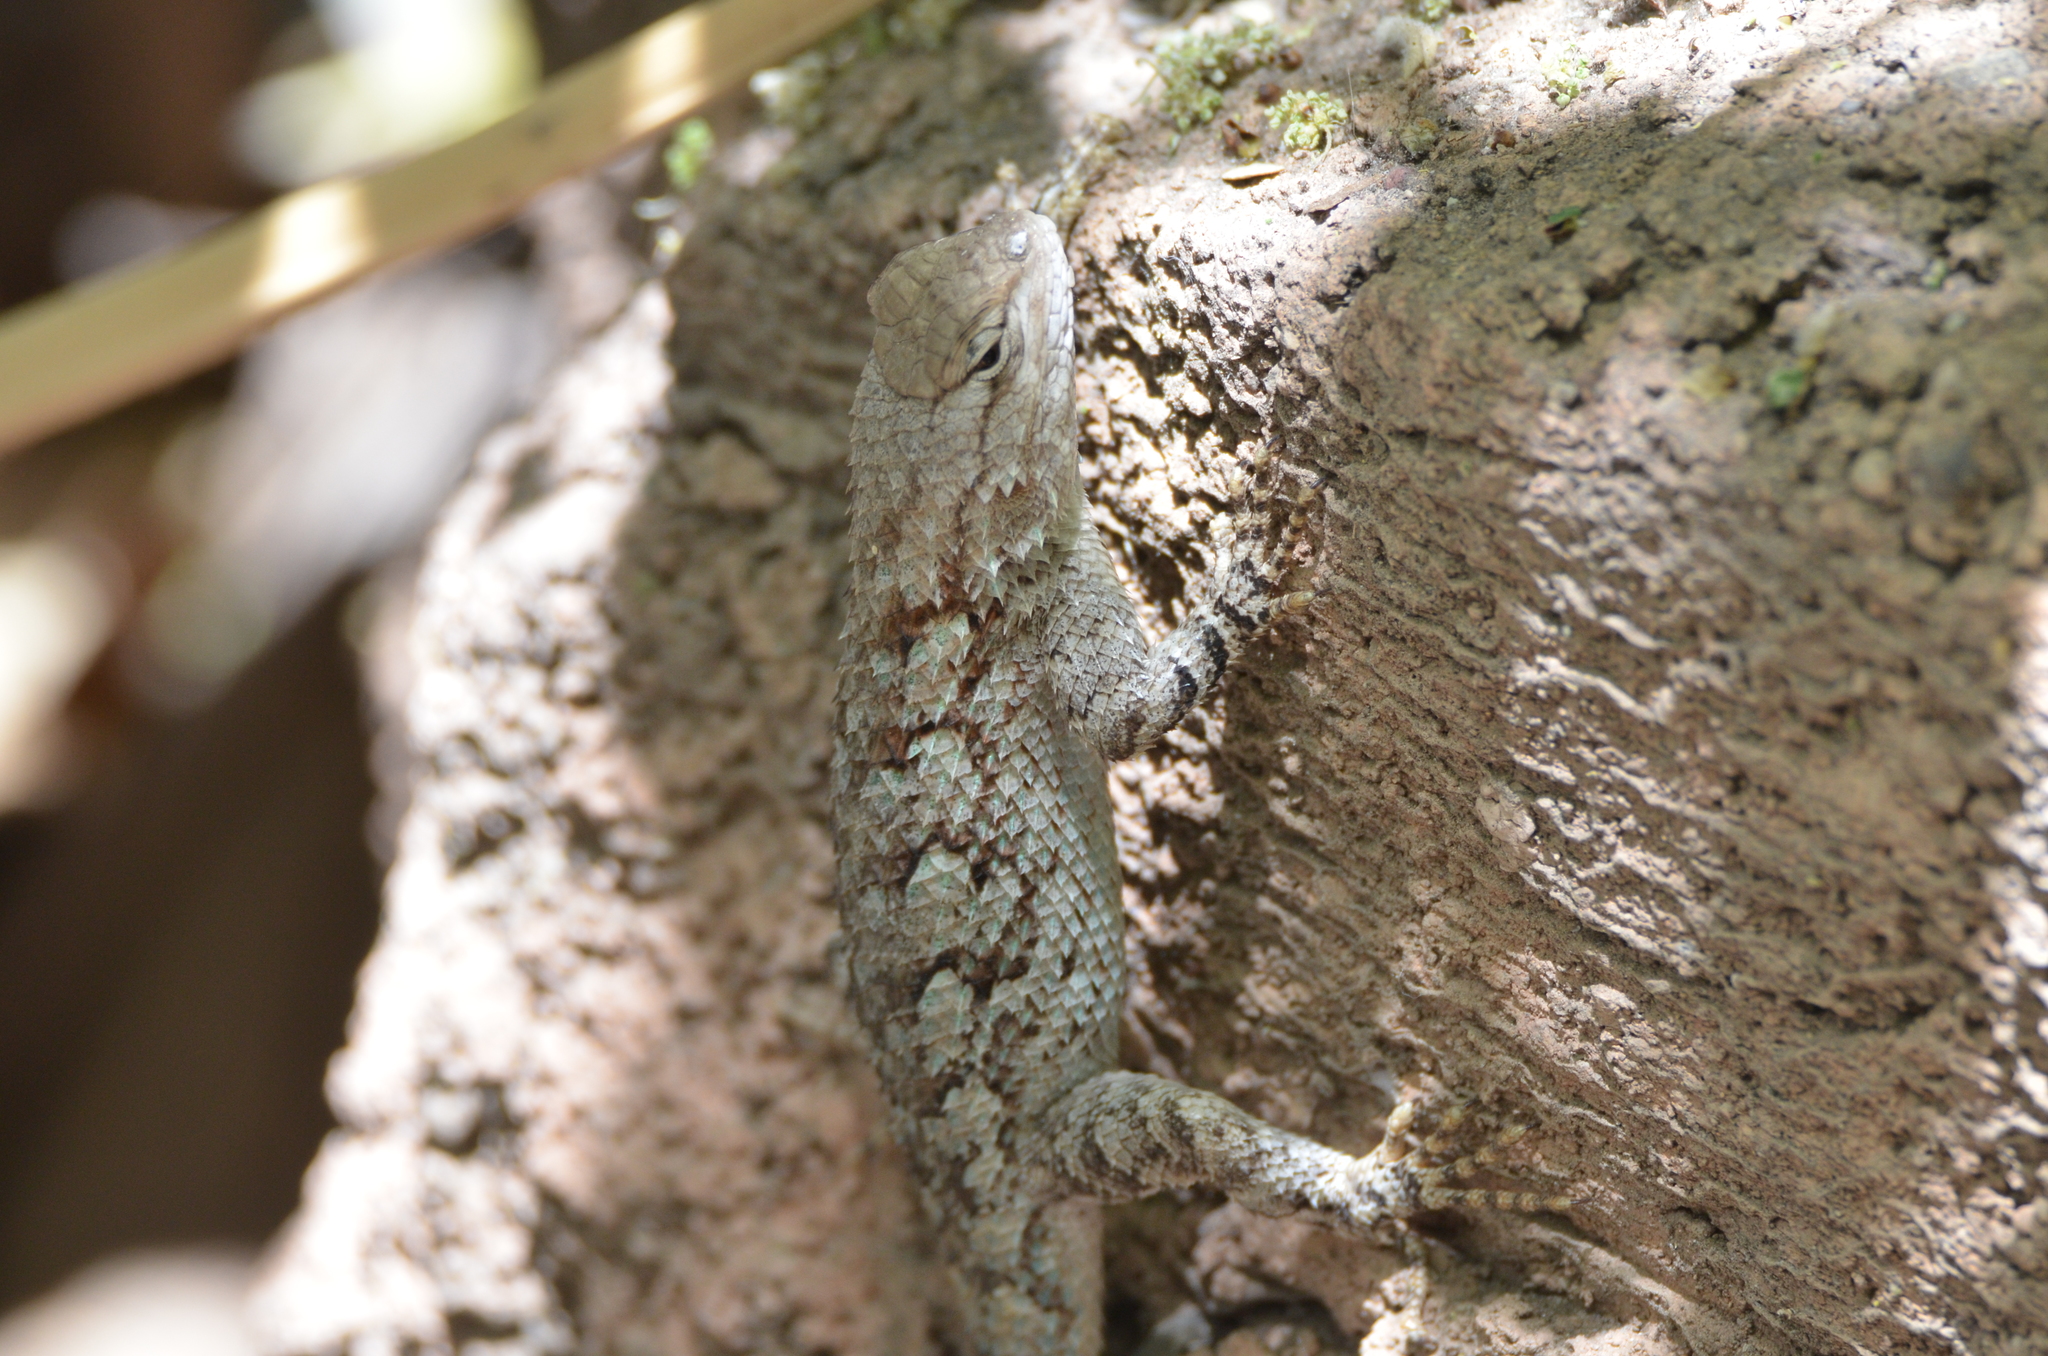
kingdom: Animalia
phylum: Chordata
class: Squamata
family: Phrynosomatidae
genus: Sceloporus
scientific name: Sceloporus clarkii
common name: Clark's spiny lizard
